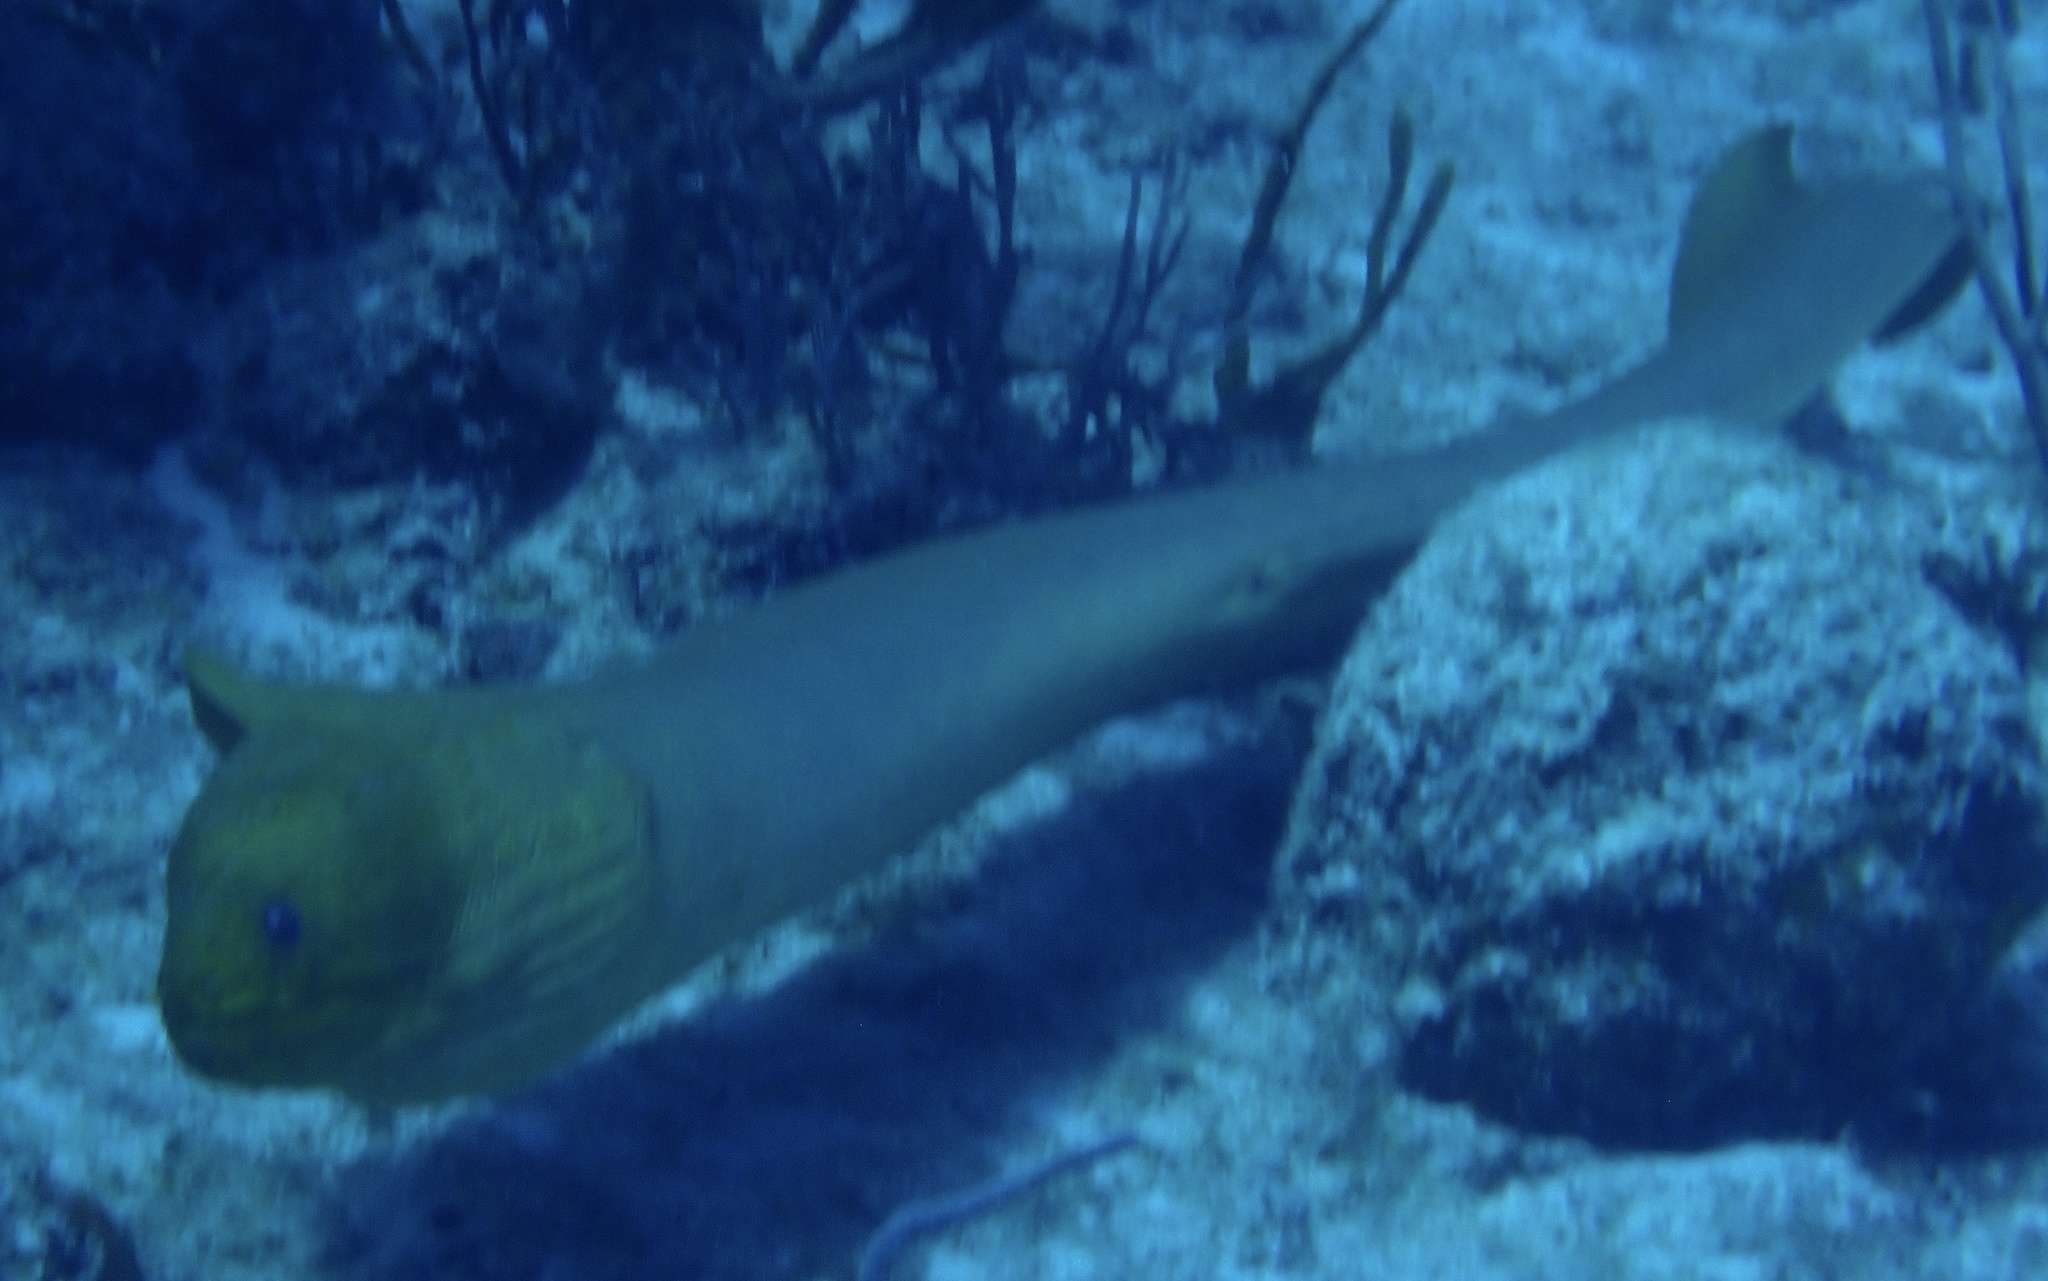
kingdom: Animalia
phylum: Chordata
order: Anguilliformes
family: Muraenidae
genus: Gymnothorax
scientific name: Gymnothorax funebris
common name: Green moray
